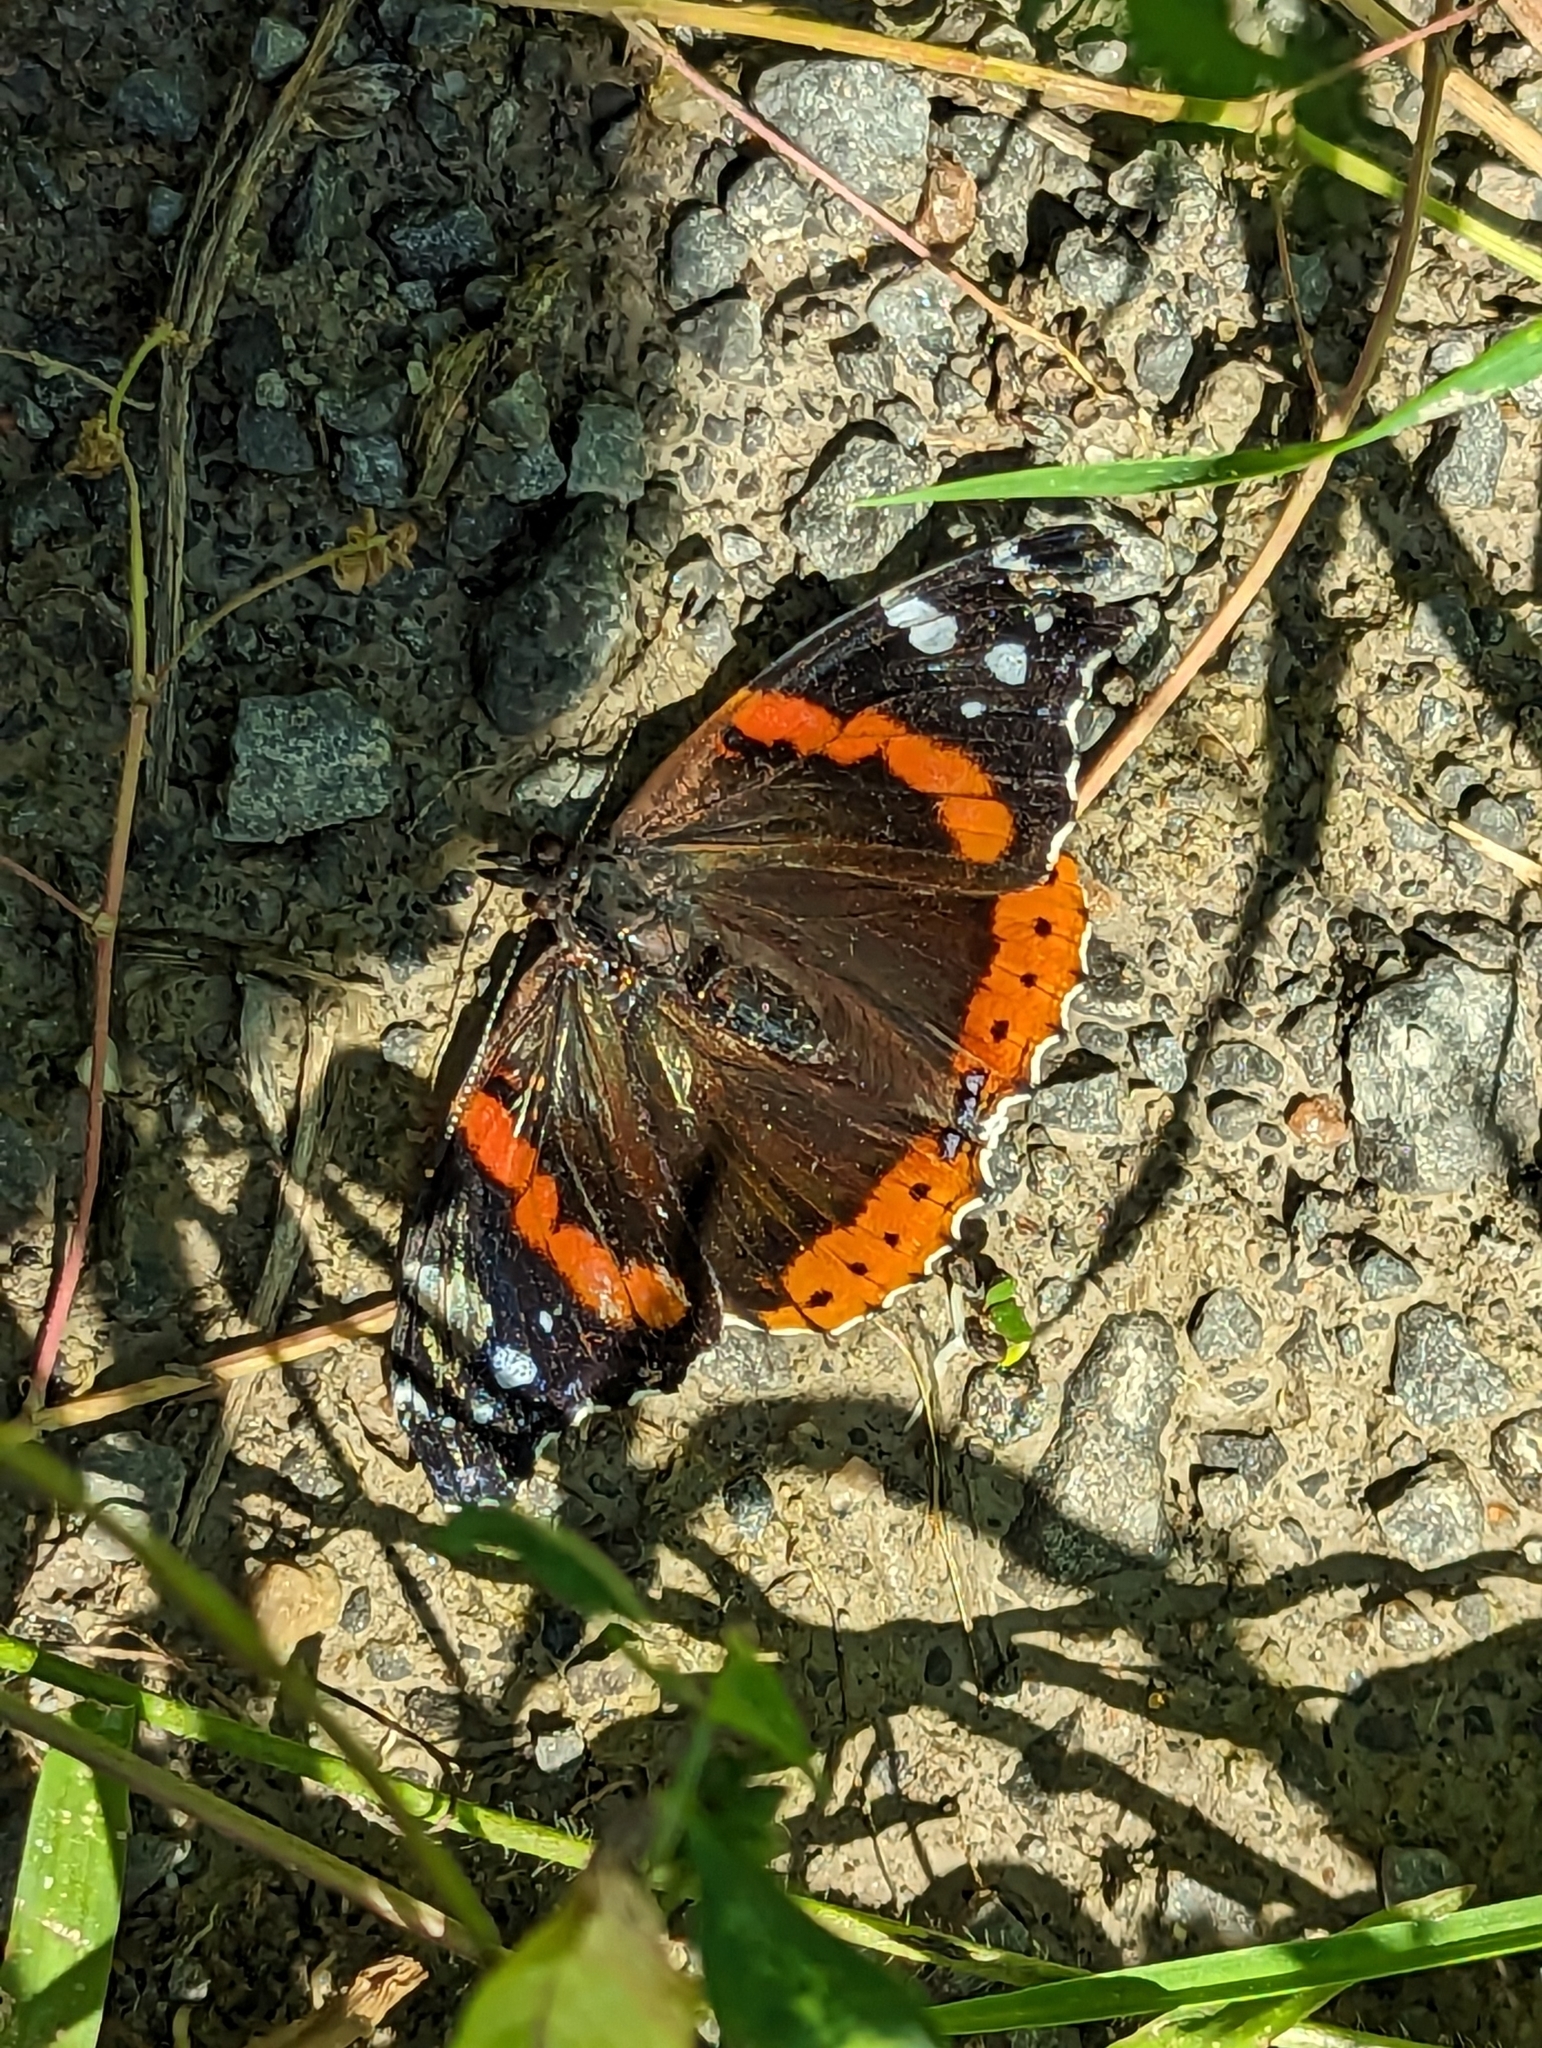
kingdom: Animalia
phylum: Arthropoda
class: Insecta
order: Lepidoptera
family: Nymphalidae
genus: Vanessa
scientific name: Vanessa atalanta
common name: Red admiral
